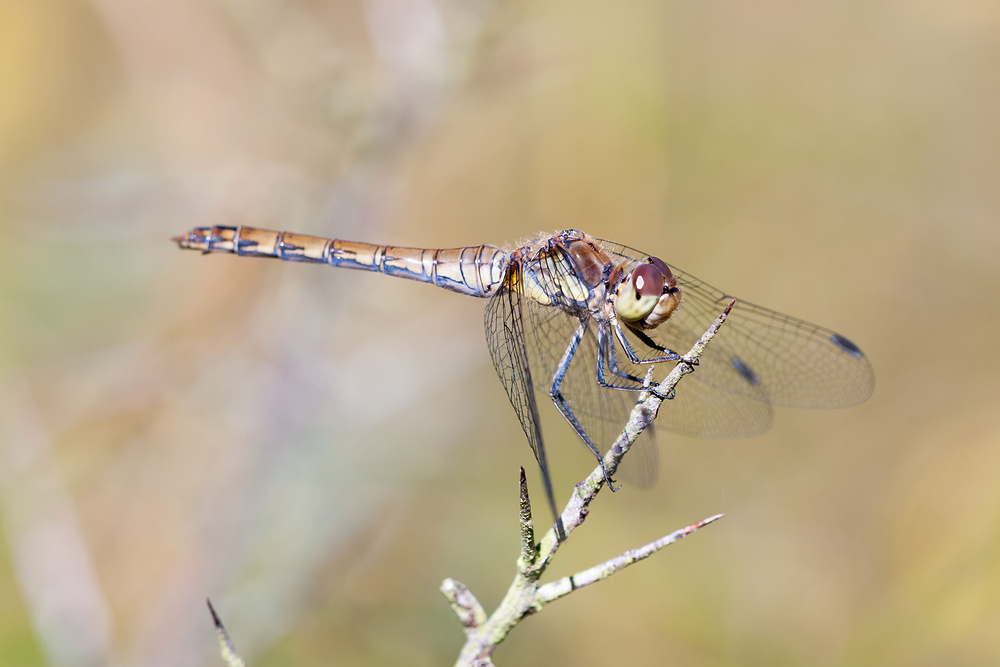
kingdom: Animalia
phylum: Arthropoda
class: Insecta
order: Odonata
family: Libellulidae
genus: Sympetrum
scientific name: Sympetrum striolatum
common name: Common darter
